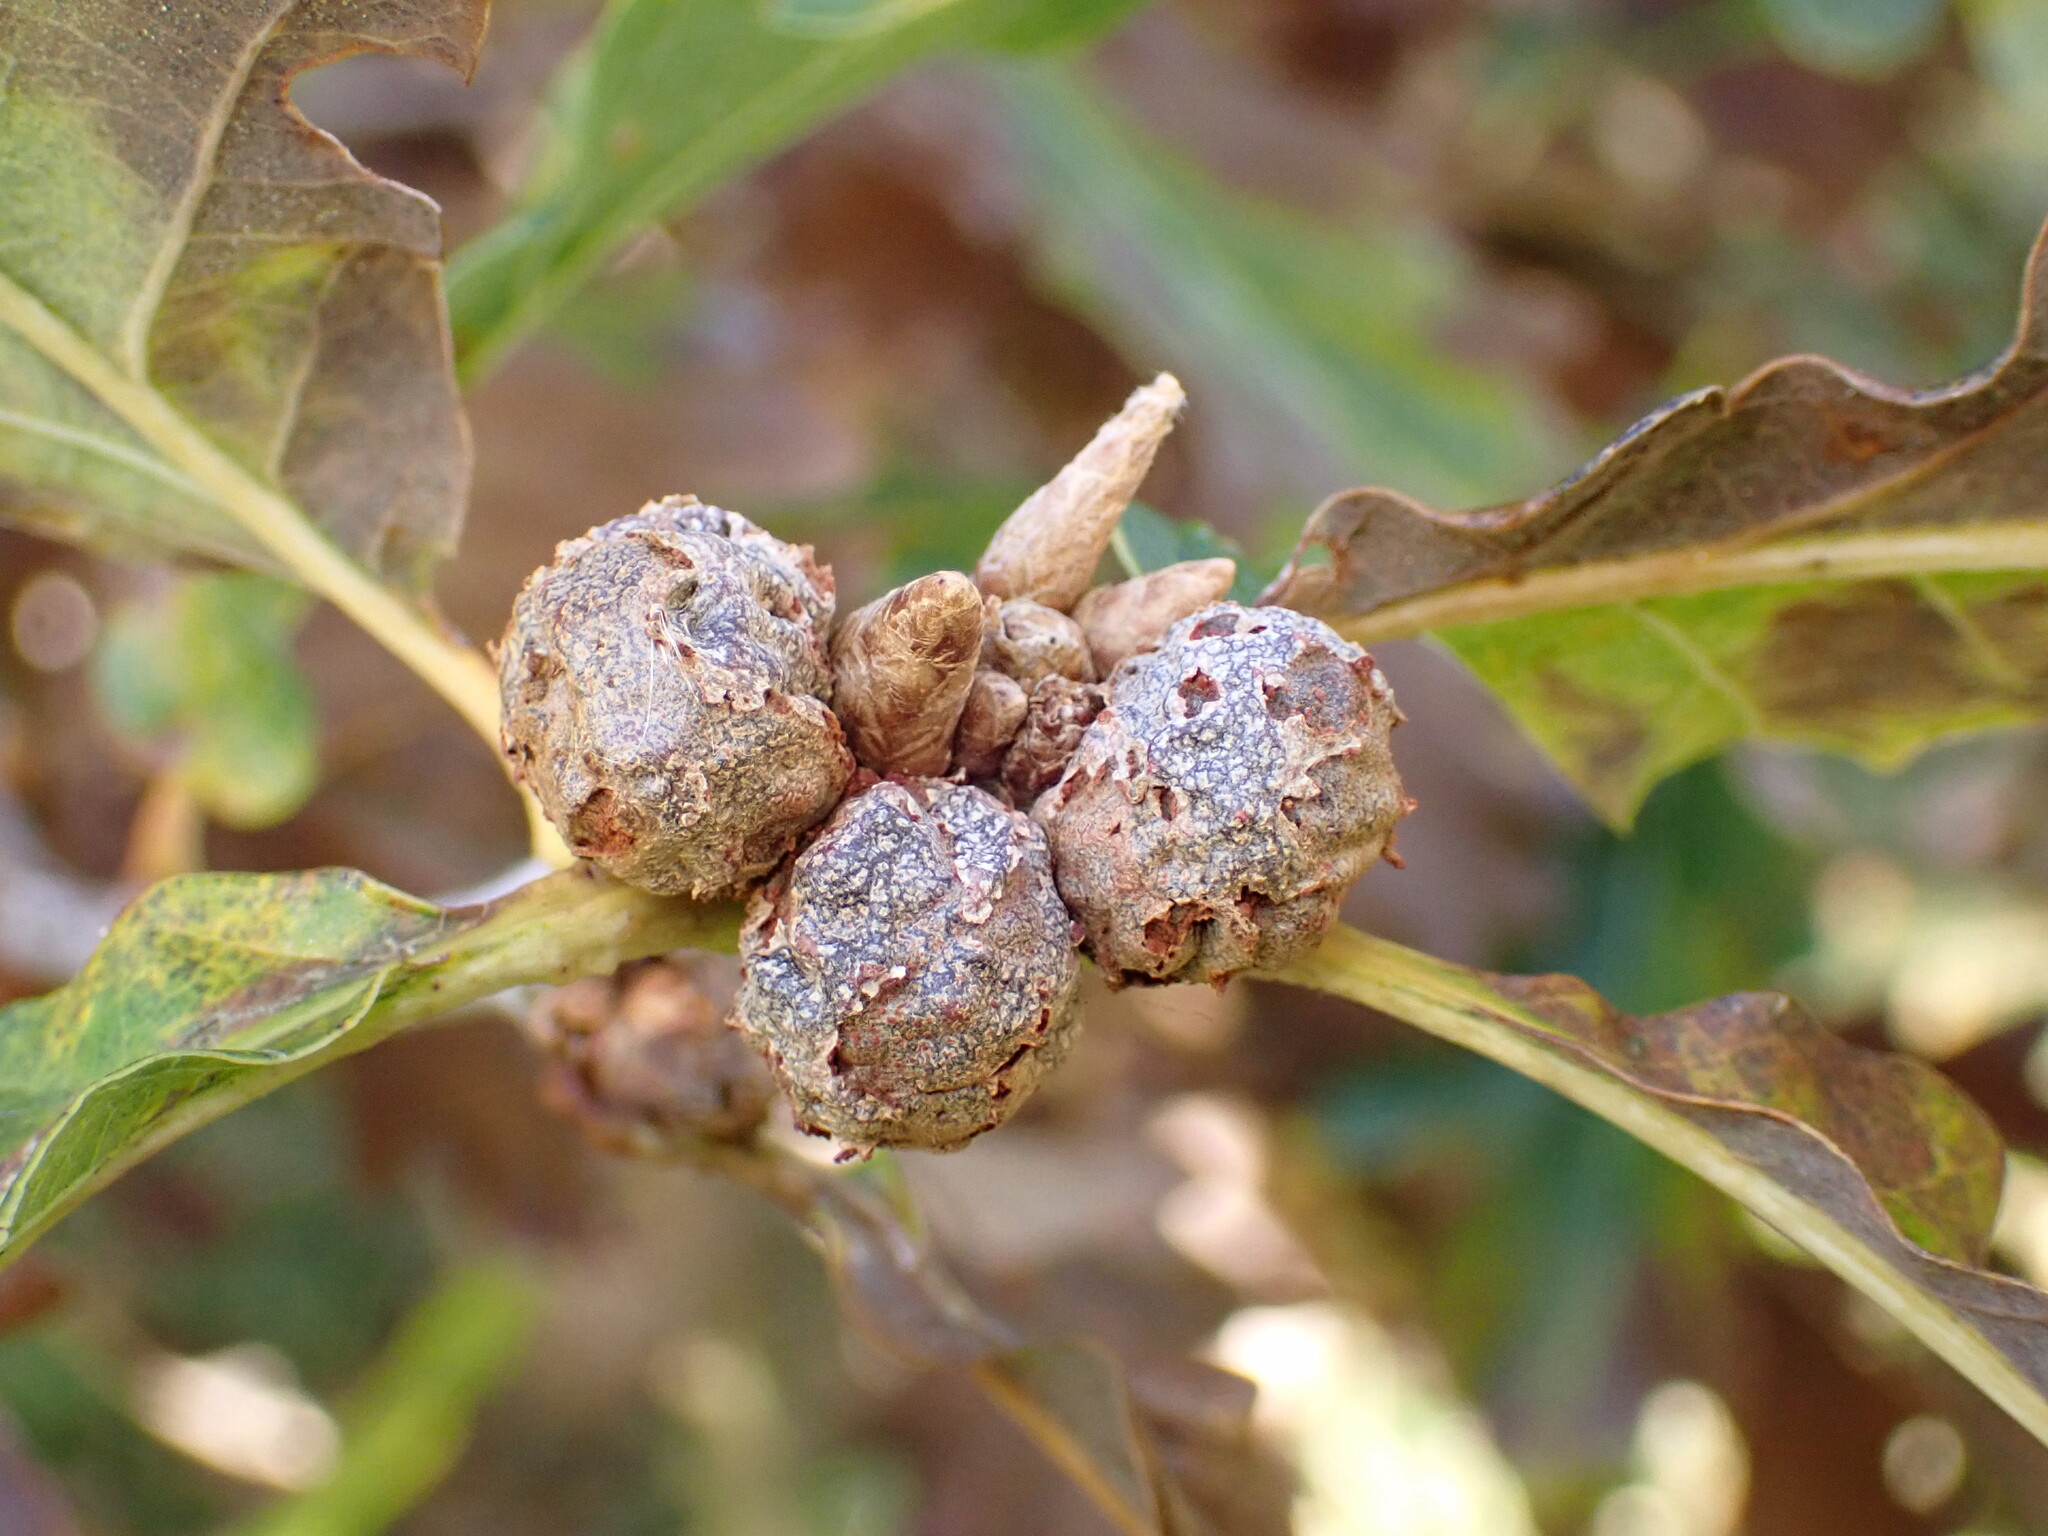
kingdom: Animalia
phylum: Arthropoda
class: Insecta
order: Hymenoptera
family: Cynipidae
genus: Andricus
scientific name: Andricus lignicolus
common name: Cola-nut gall
